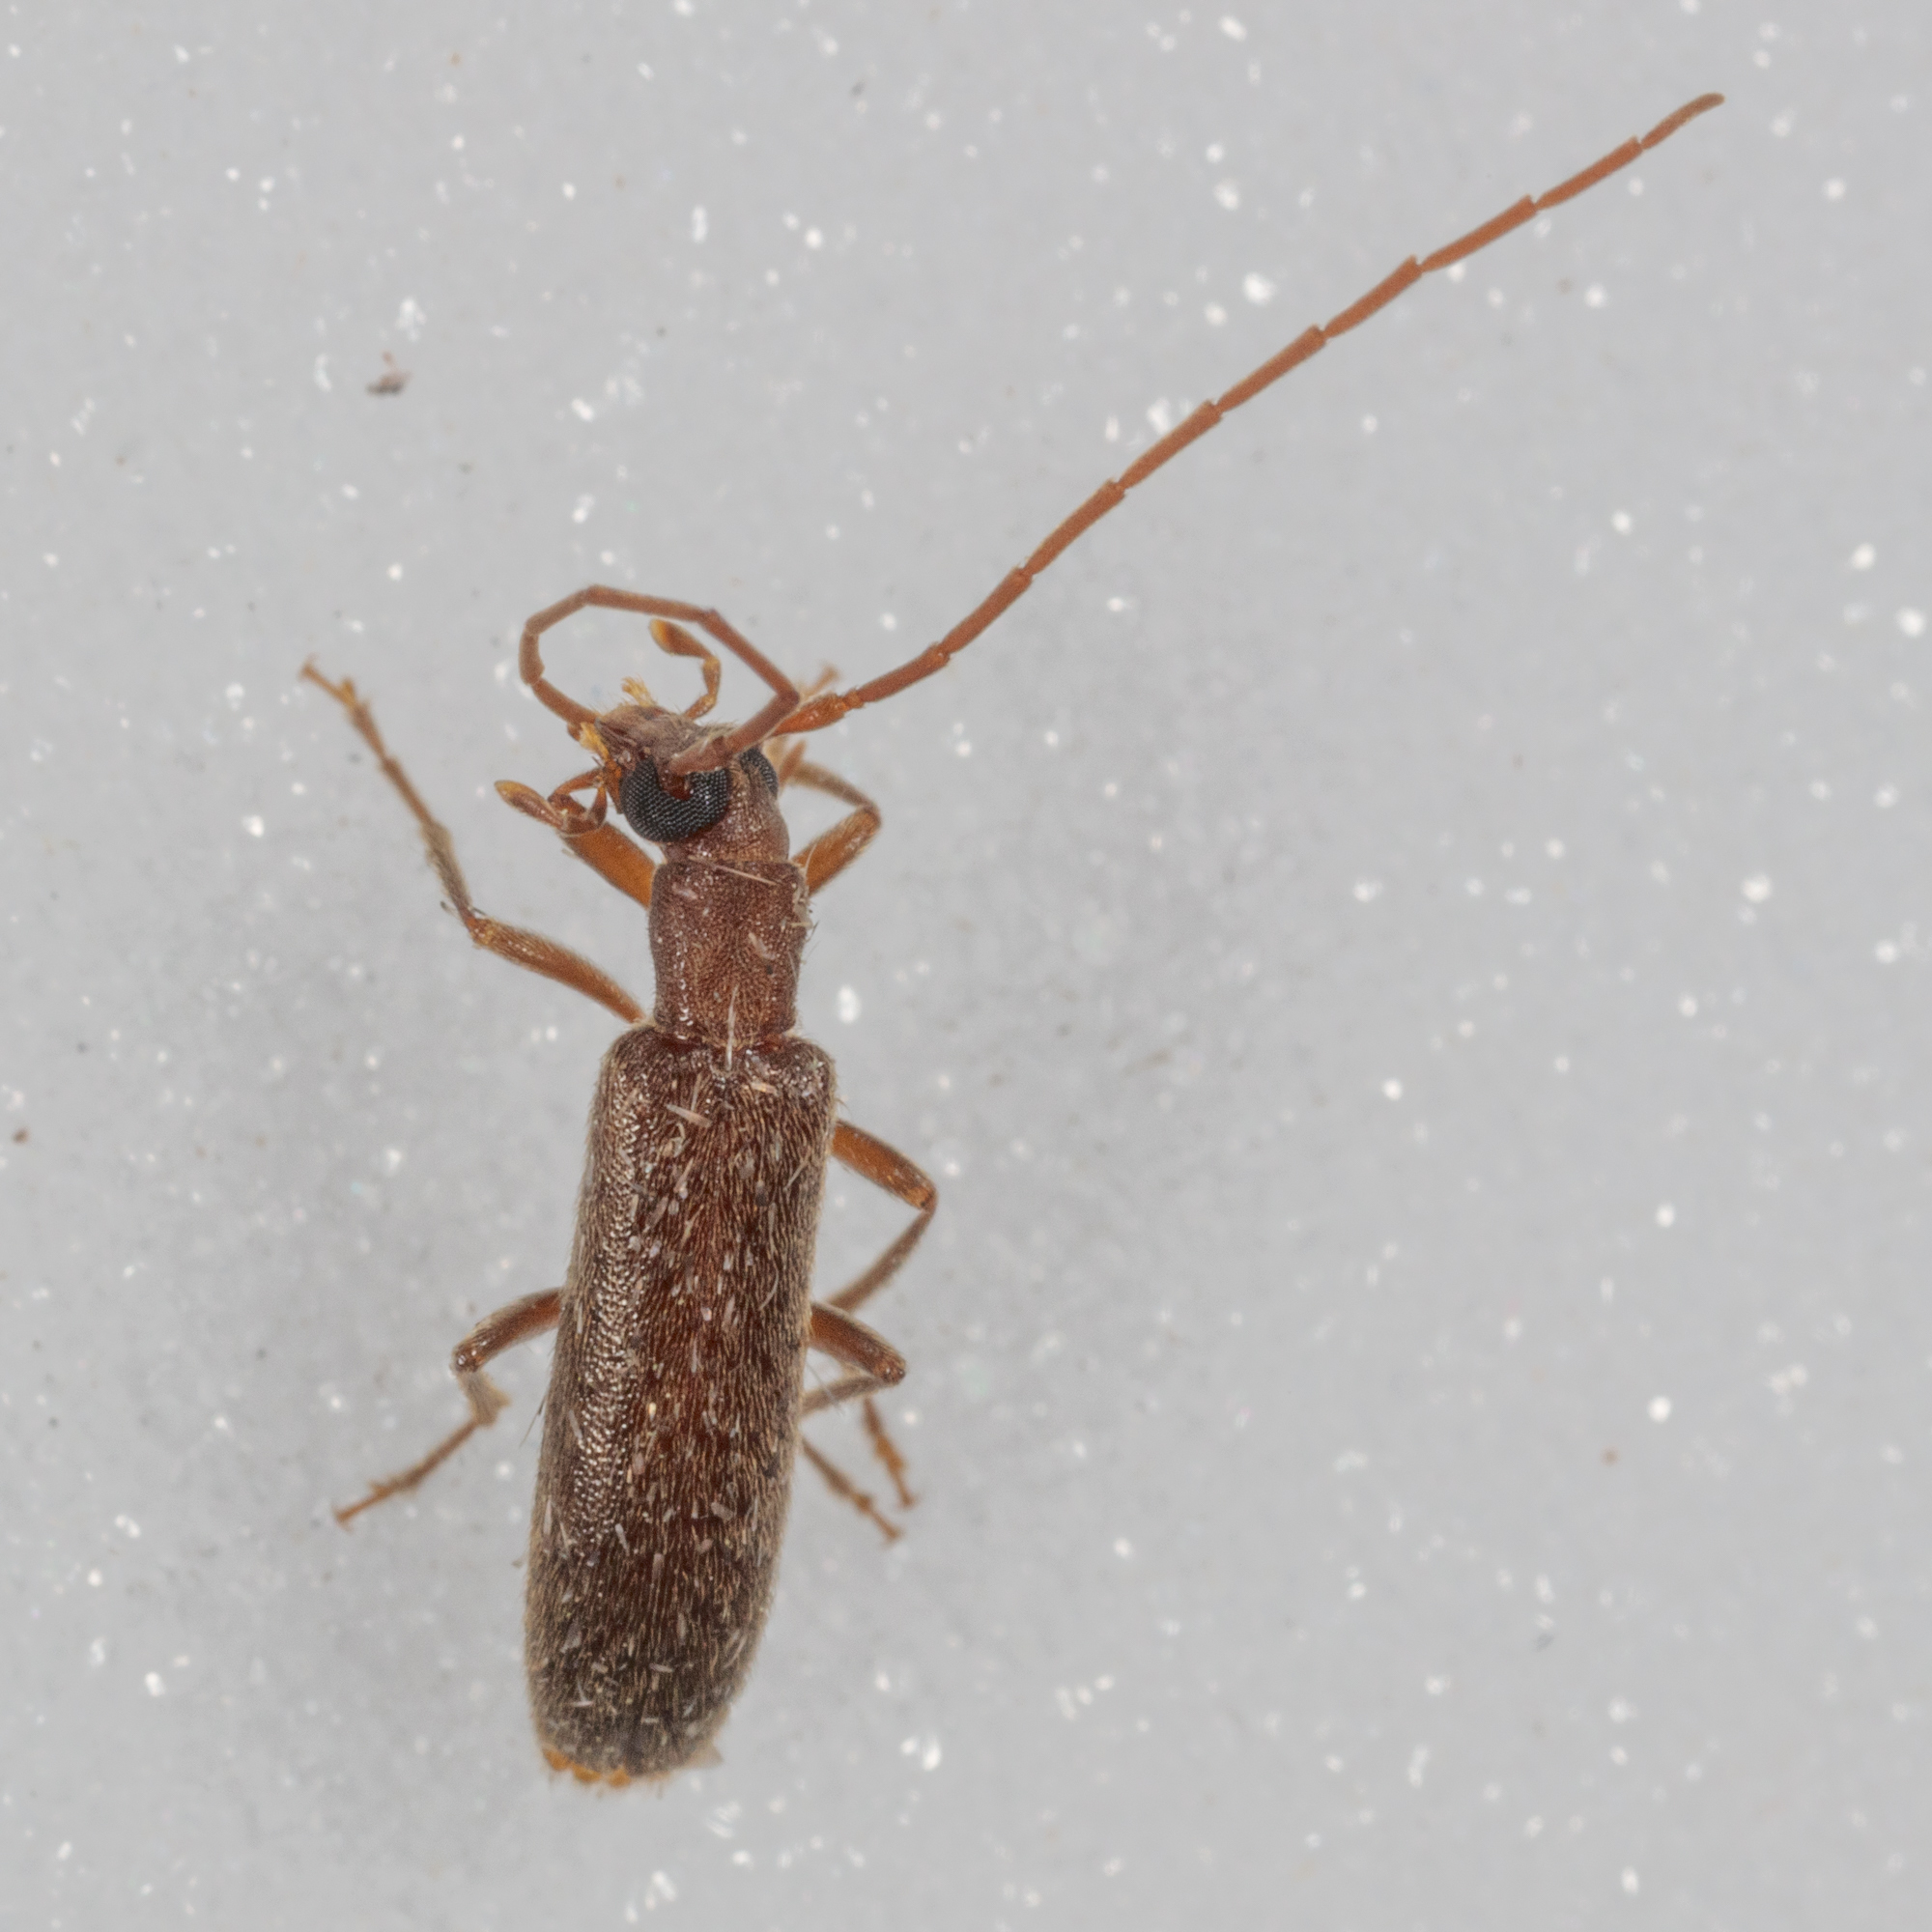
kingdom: Animalia
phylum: Arthropoda
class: Insecta
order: Coleoptera
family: Oedemeridae
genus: Sparedrus
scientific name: Sparedrus aspersus
